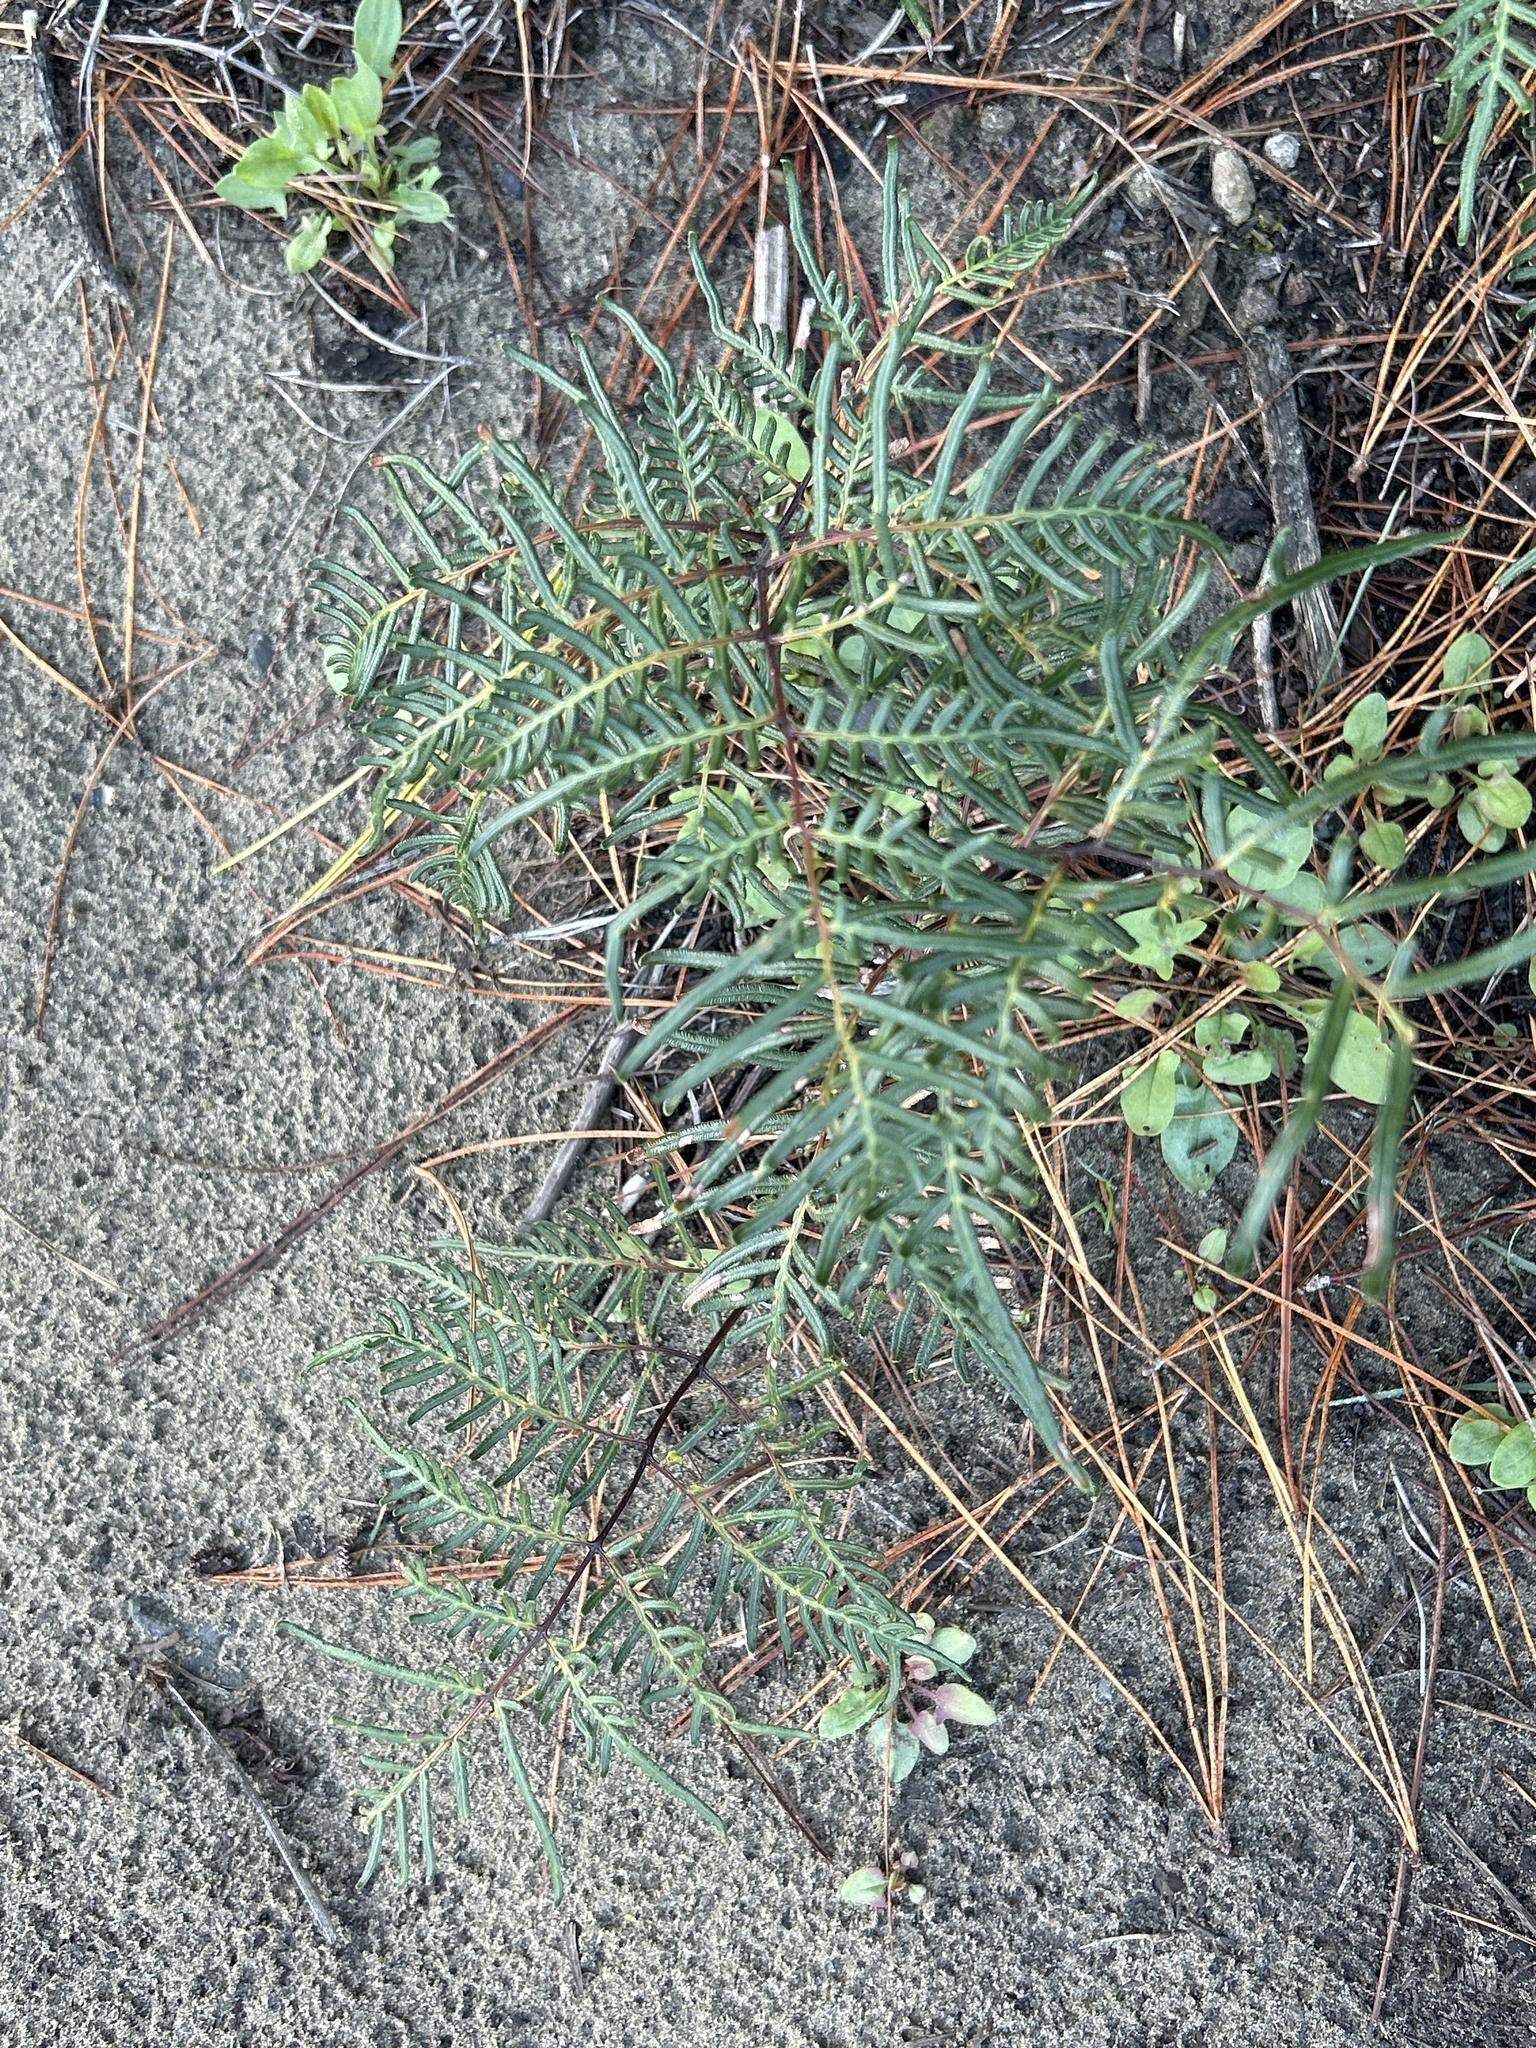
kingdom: Plantae
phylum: Tracheophyta
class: Polypodiopsida
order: Polypodiales
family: Dennstaedtiaceae
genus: Pteridium
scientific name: Pteridium esculentum
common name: Bracken fern
